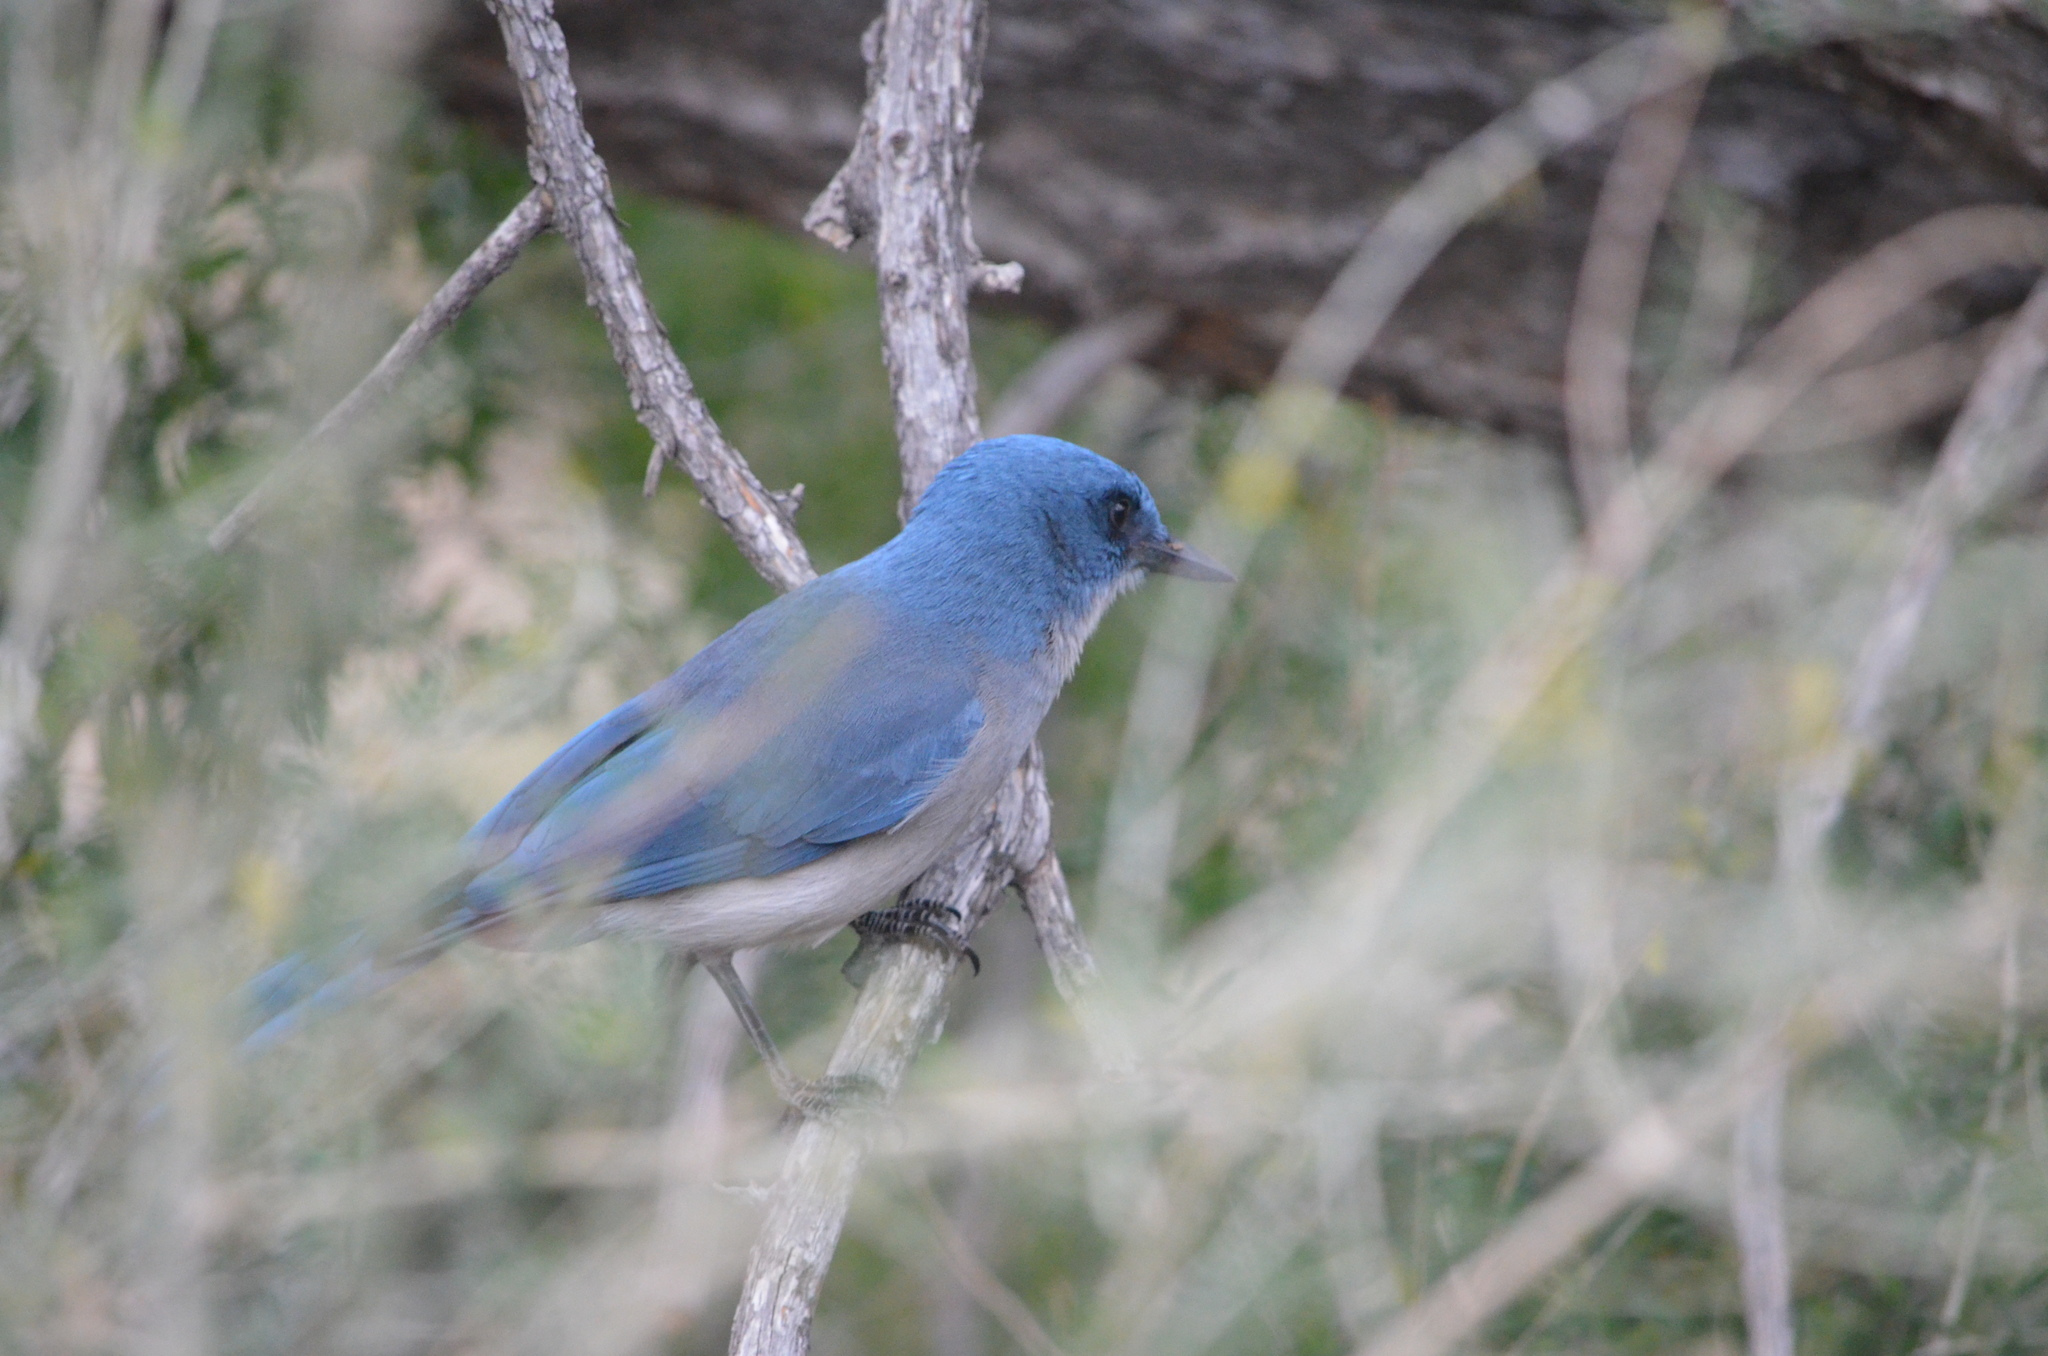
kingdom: Animalia
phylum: Chordata
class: Aves
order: Passeriformes
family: Corvidae
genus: Aphelocoma
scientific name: Aphelocoma wollweberi
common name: Mexican jay
